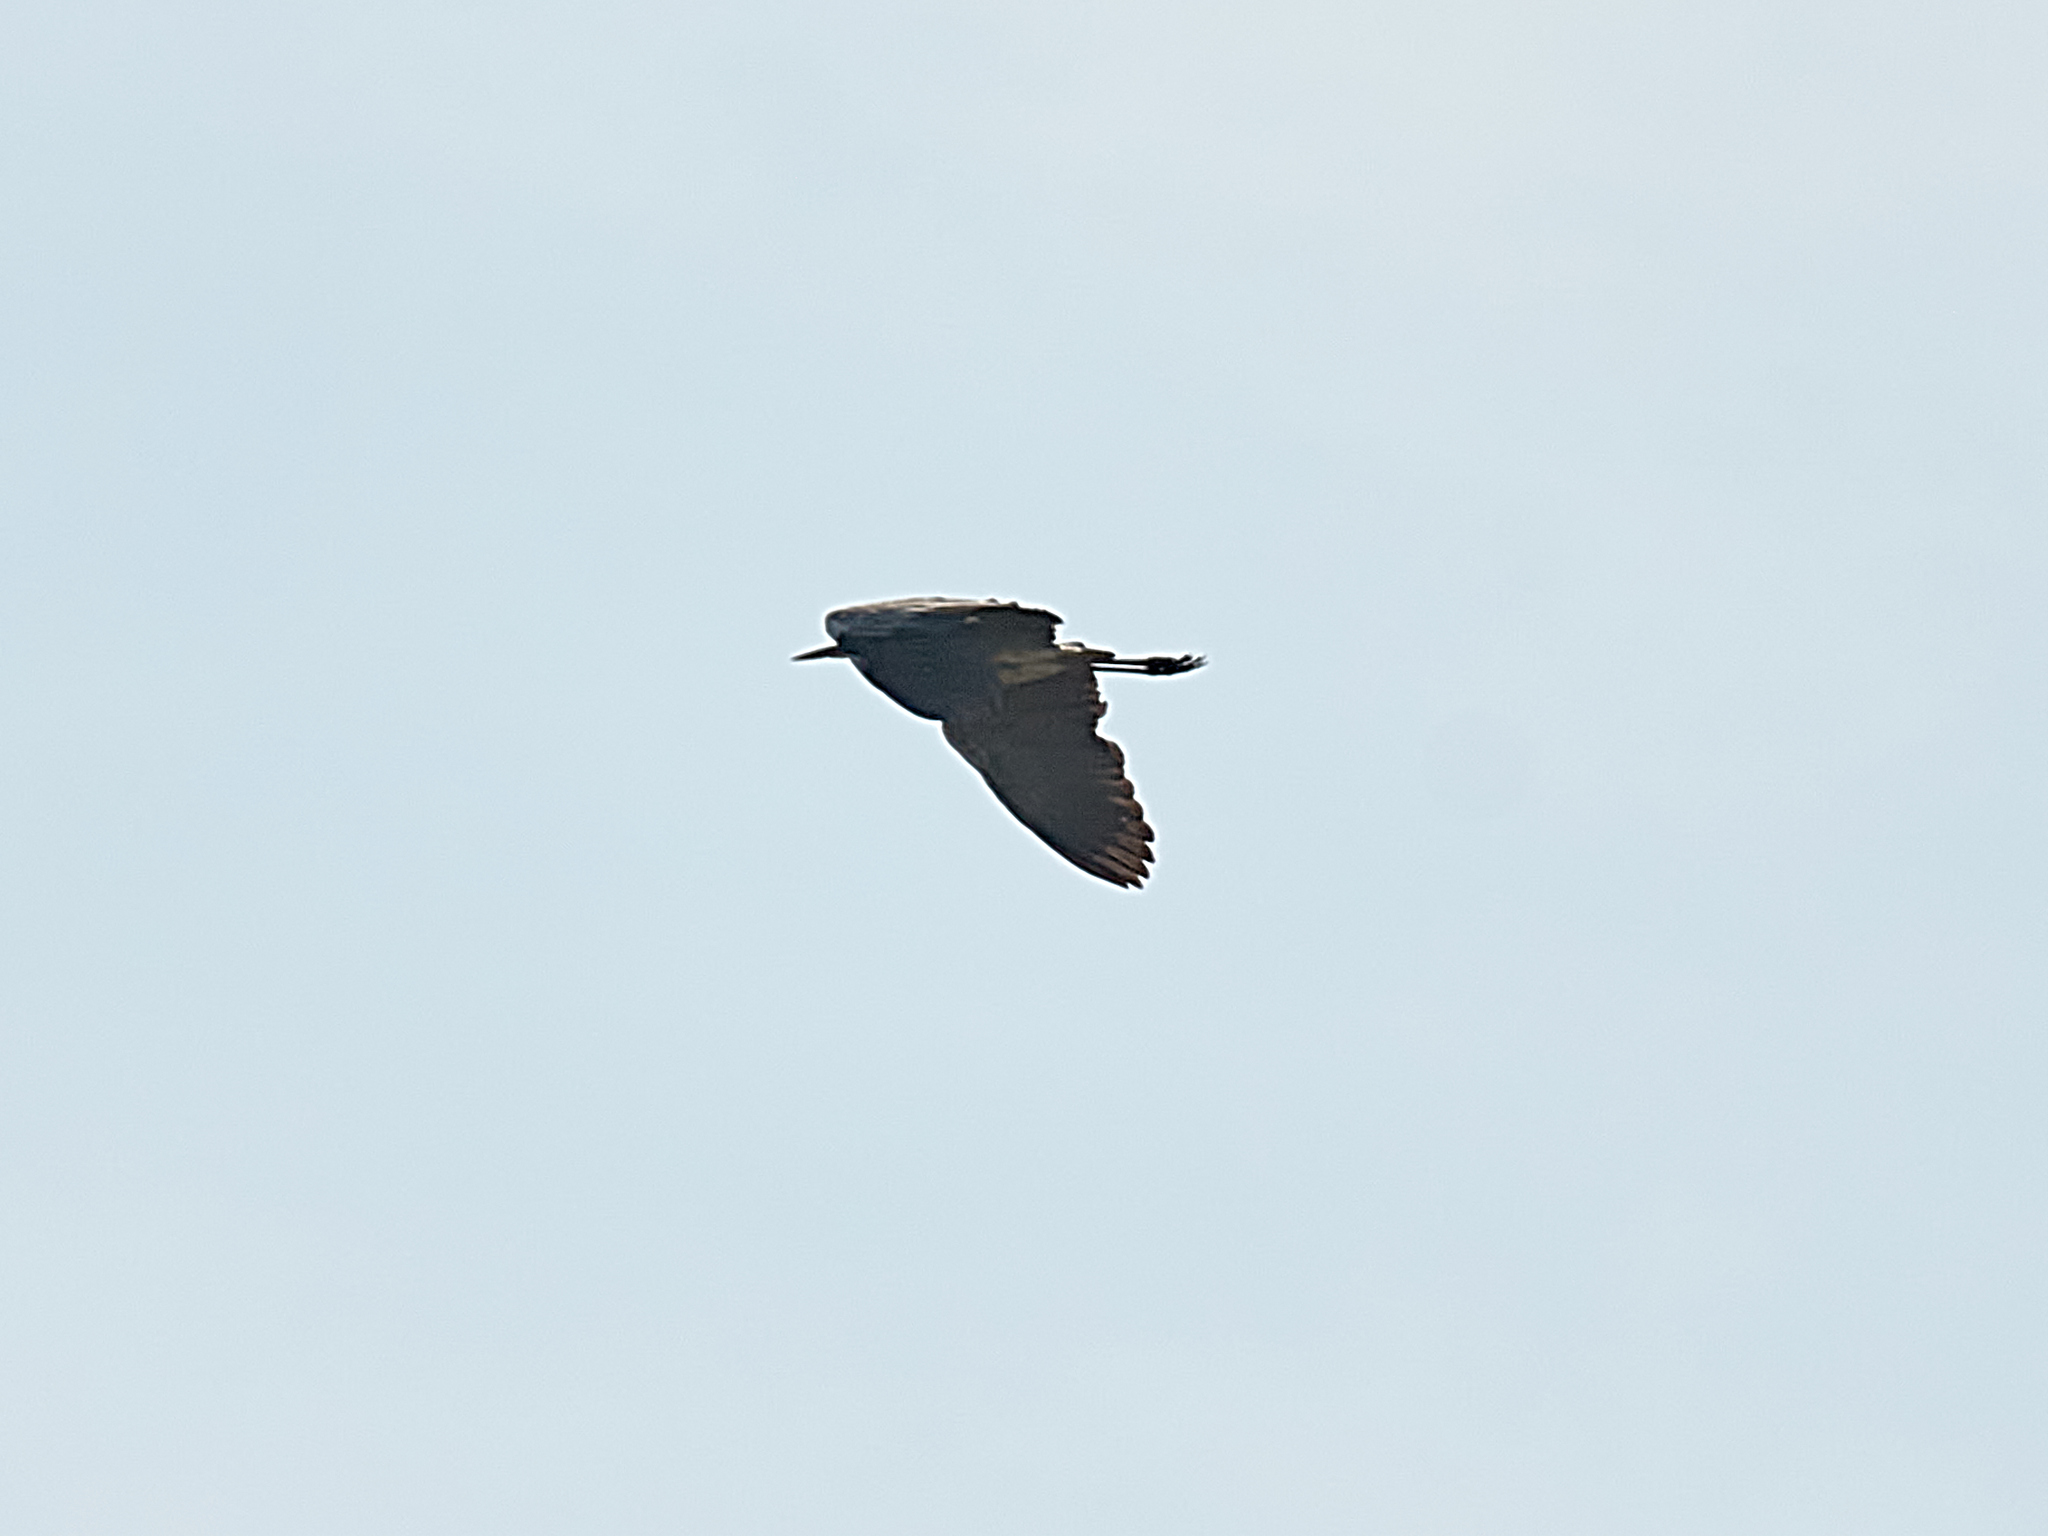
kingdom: Animalia
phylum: Chordata
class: Aves
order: Pelecaniformes
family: Ardeidae
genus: Ardea
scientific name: Ardea cinerea
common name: Grey heron
